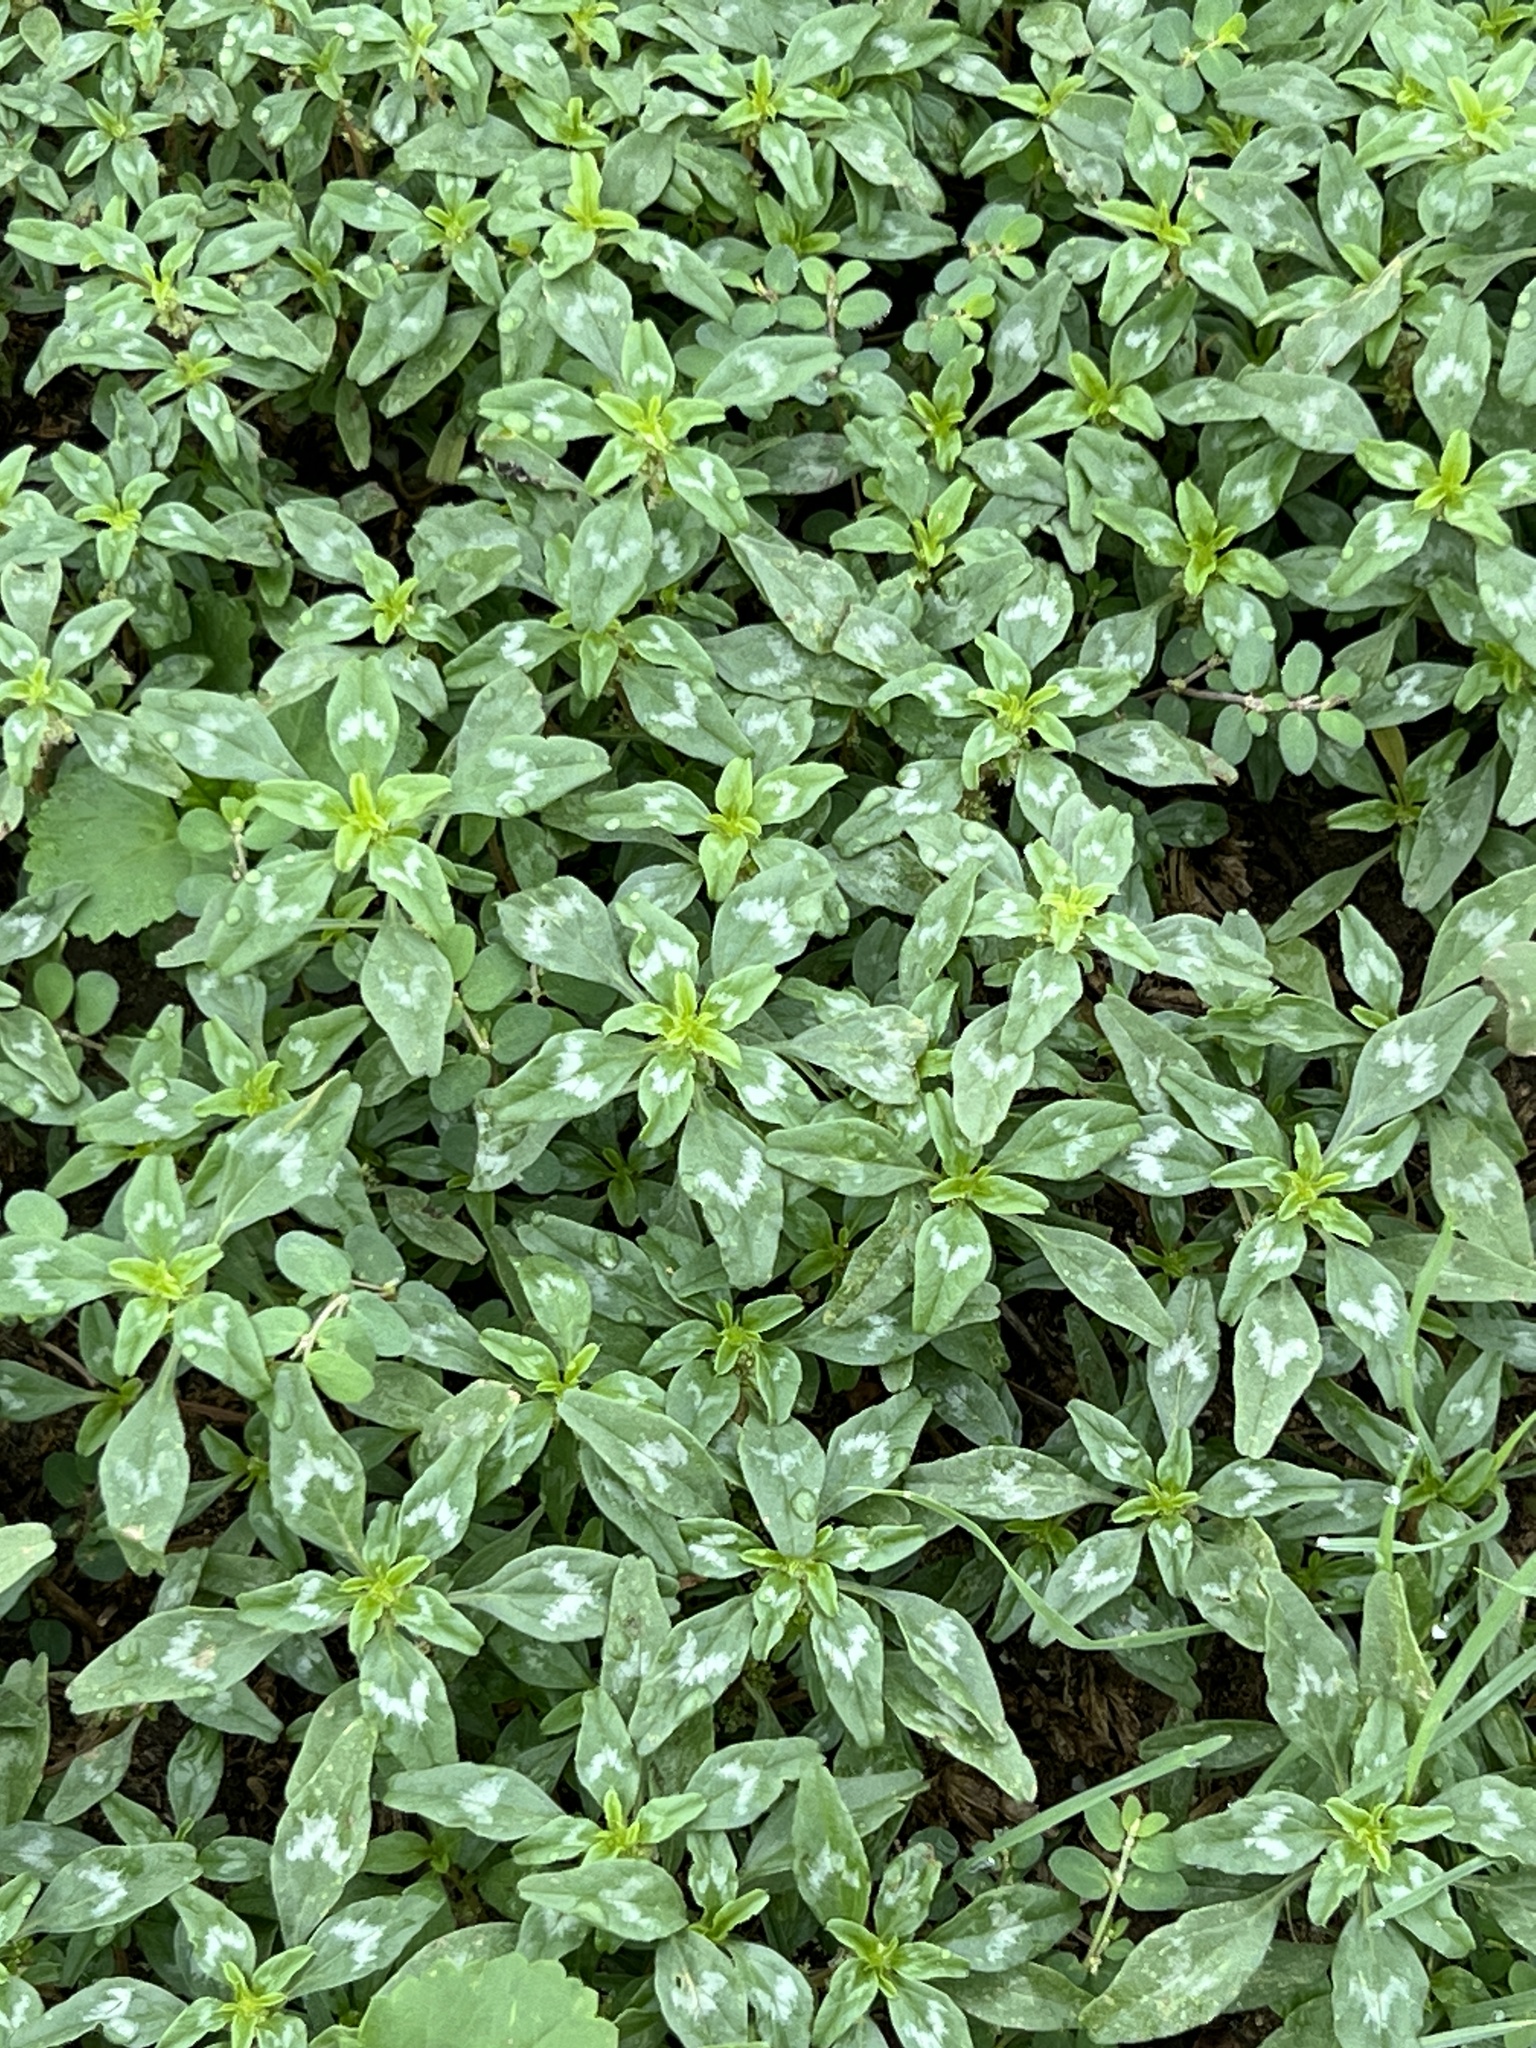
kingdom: Plantae
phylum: Tracheophyta
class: Magnoliopsida
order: Caryophyllales
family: Amaranthaceae
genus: Amaranthus
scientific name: Amaranthus polygonoides
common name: Tropical amaranth
